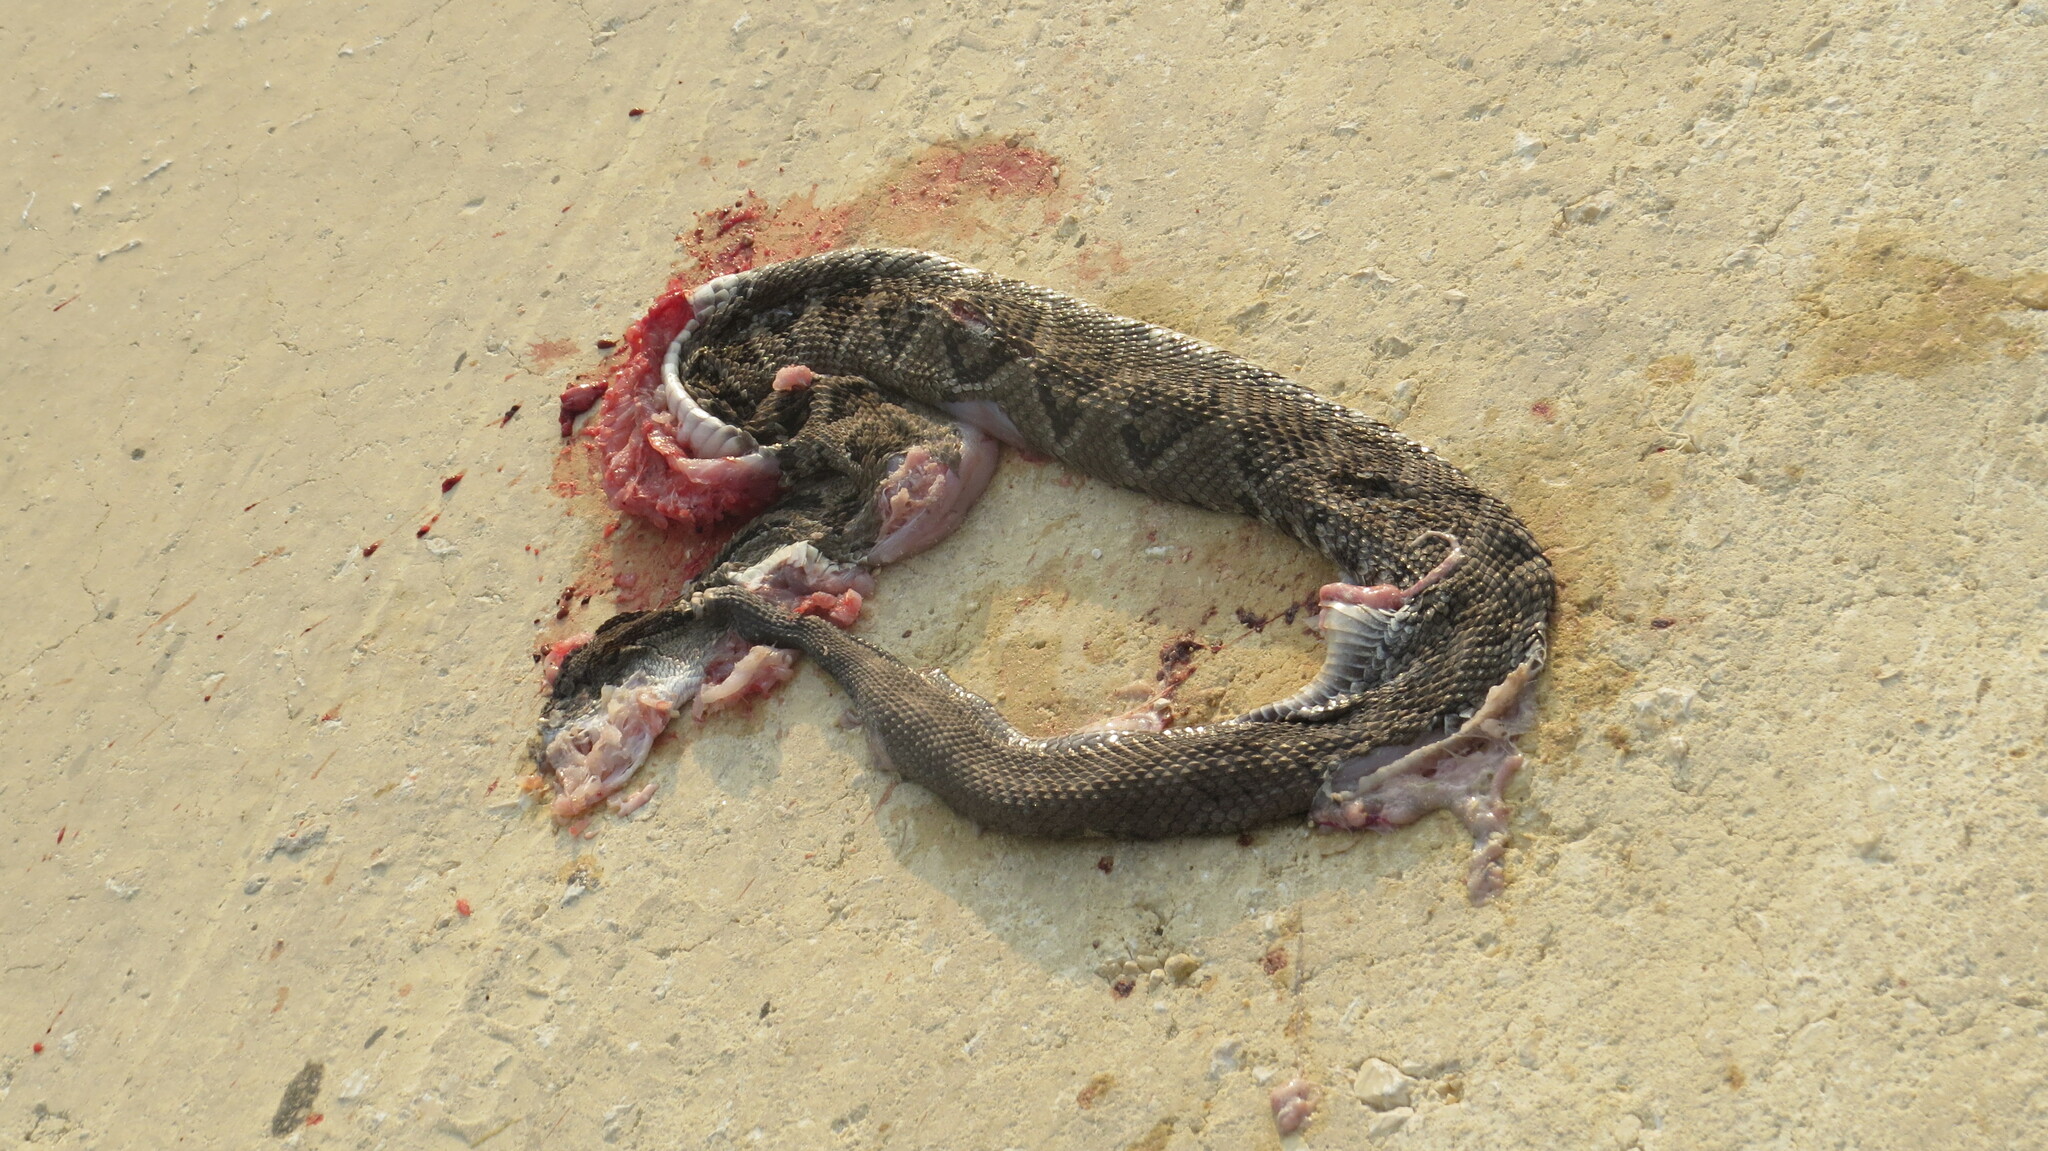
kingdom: Animalia
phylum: Chordata
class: Squamata
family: Viperidae
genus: Crotalus
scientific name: Crotalus tzabcan
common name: Yucatan neotropical rattlesnake
